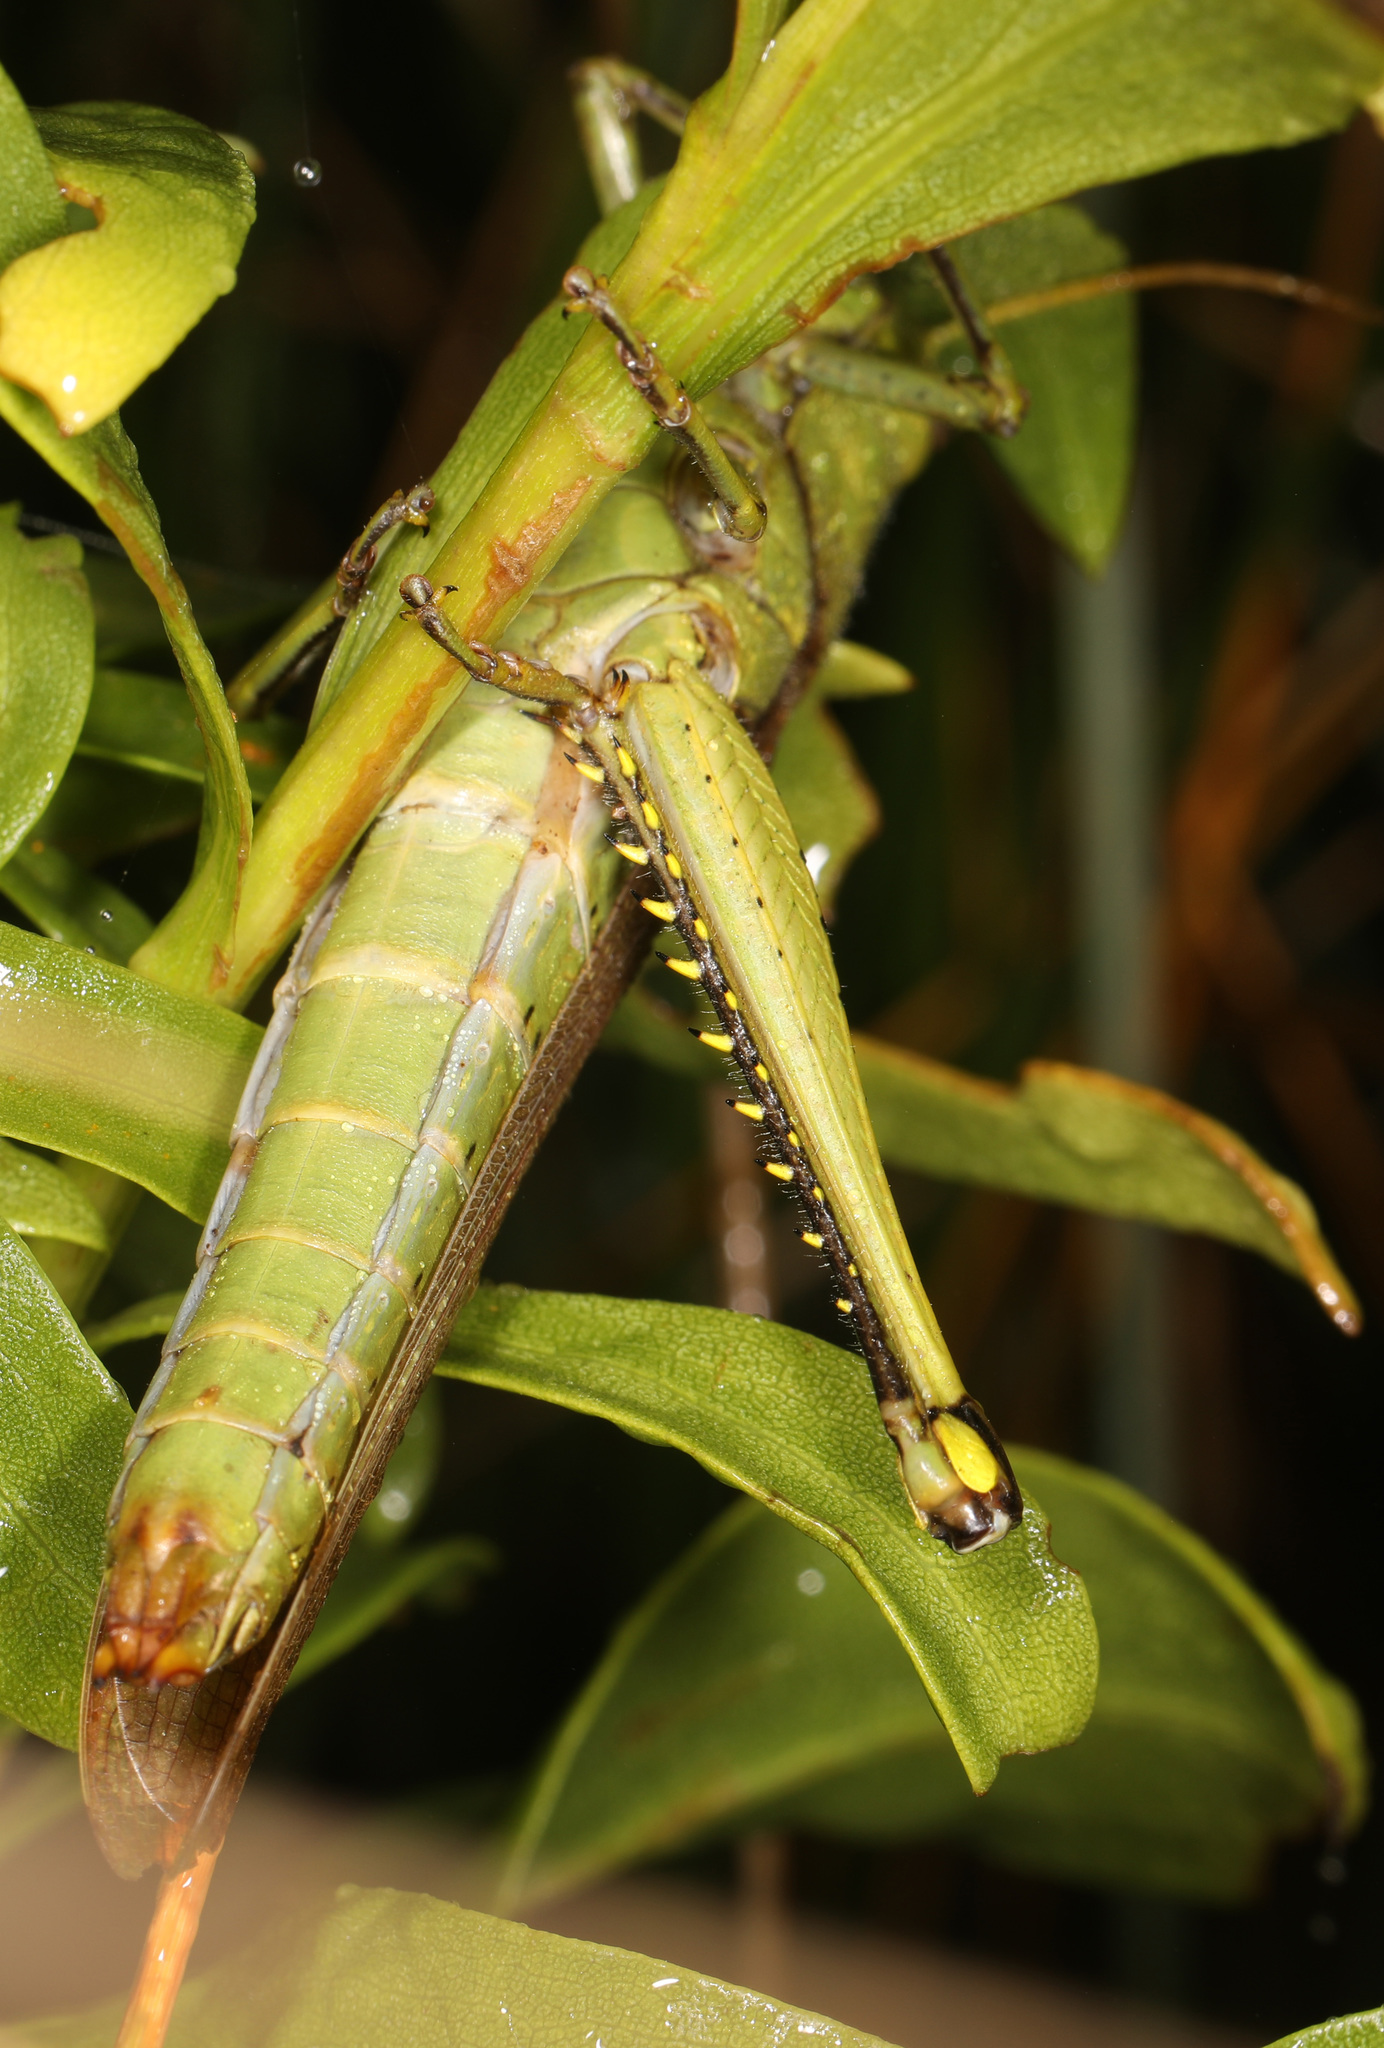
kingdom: Animalia
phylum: Arthropoda
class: Insecta
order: Orthoptera
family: Acrididae
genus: Schistocerca
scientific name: Schistocerca obscura
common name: Obscure bird grasshopper
